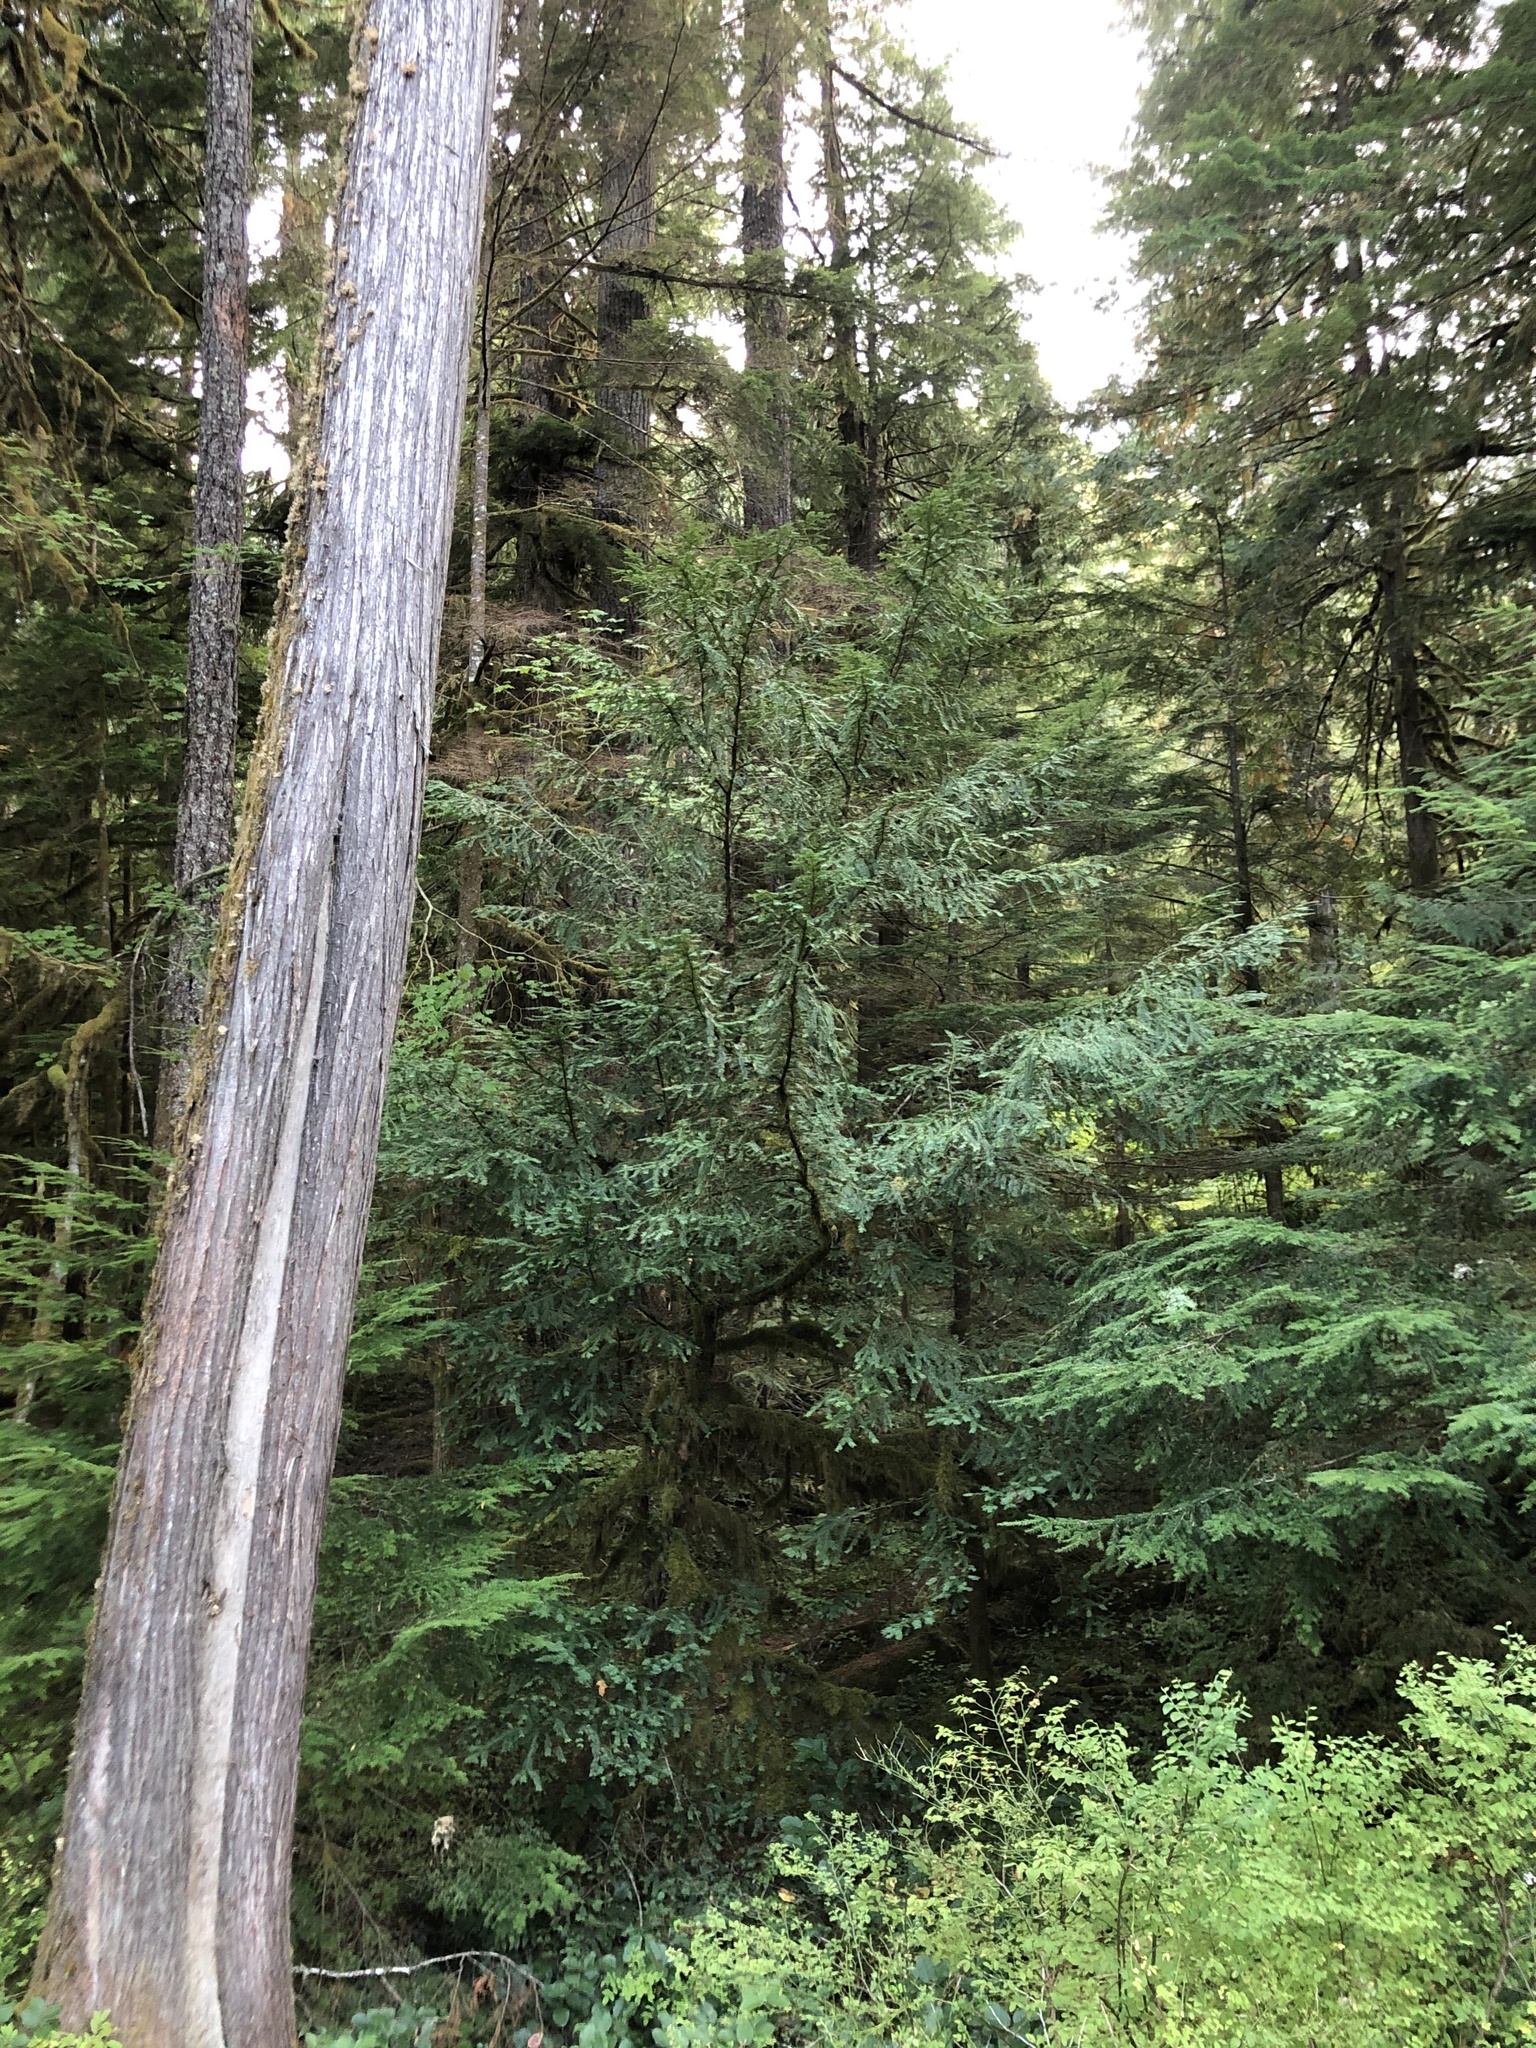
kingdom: Plantae
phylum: Tracheophyta
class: Pinopsida
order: Pinales
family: Taxaceae
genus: Taxus
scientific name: Taxus brevifolia
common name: Pacific yew
